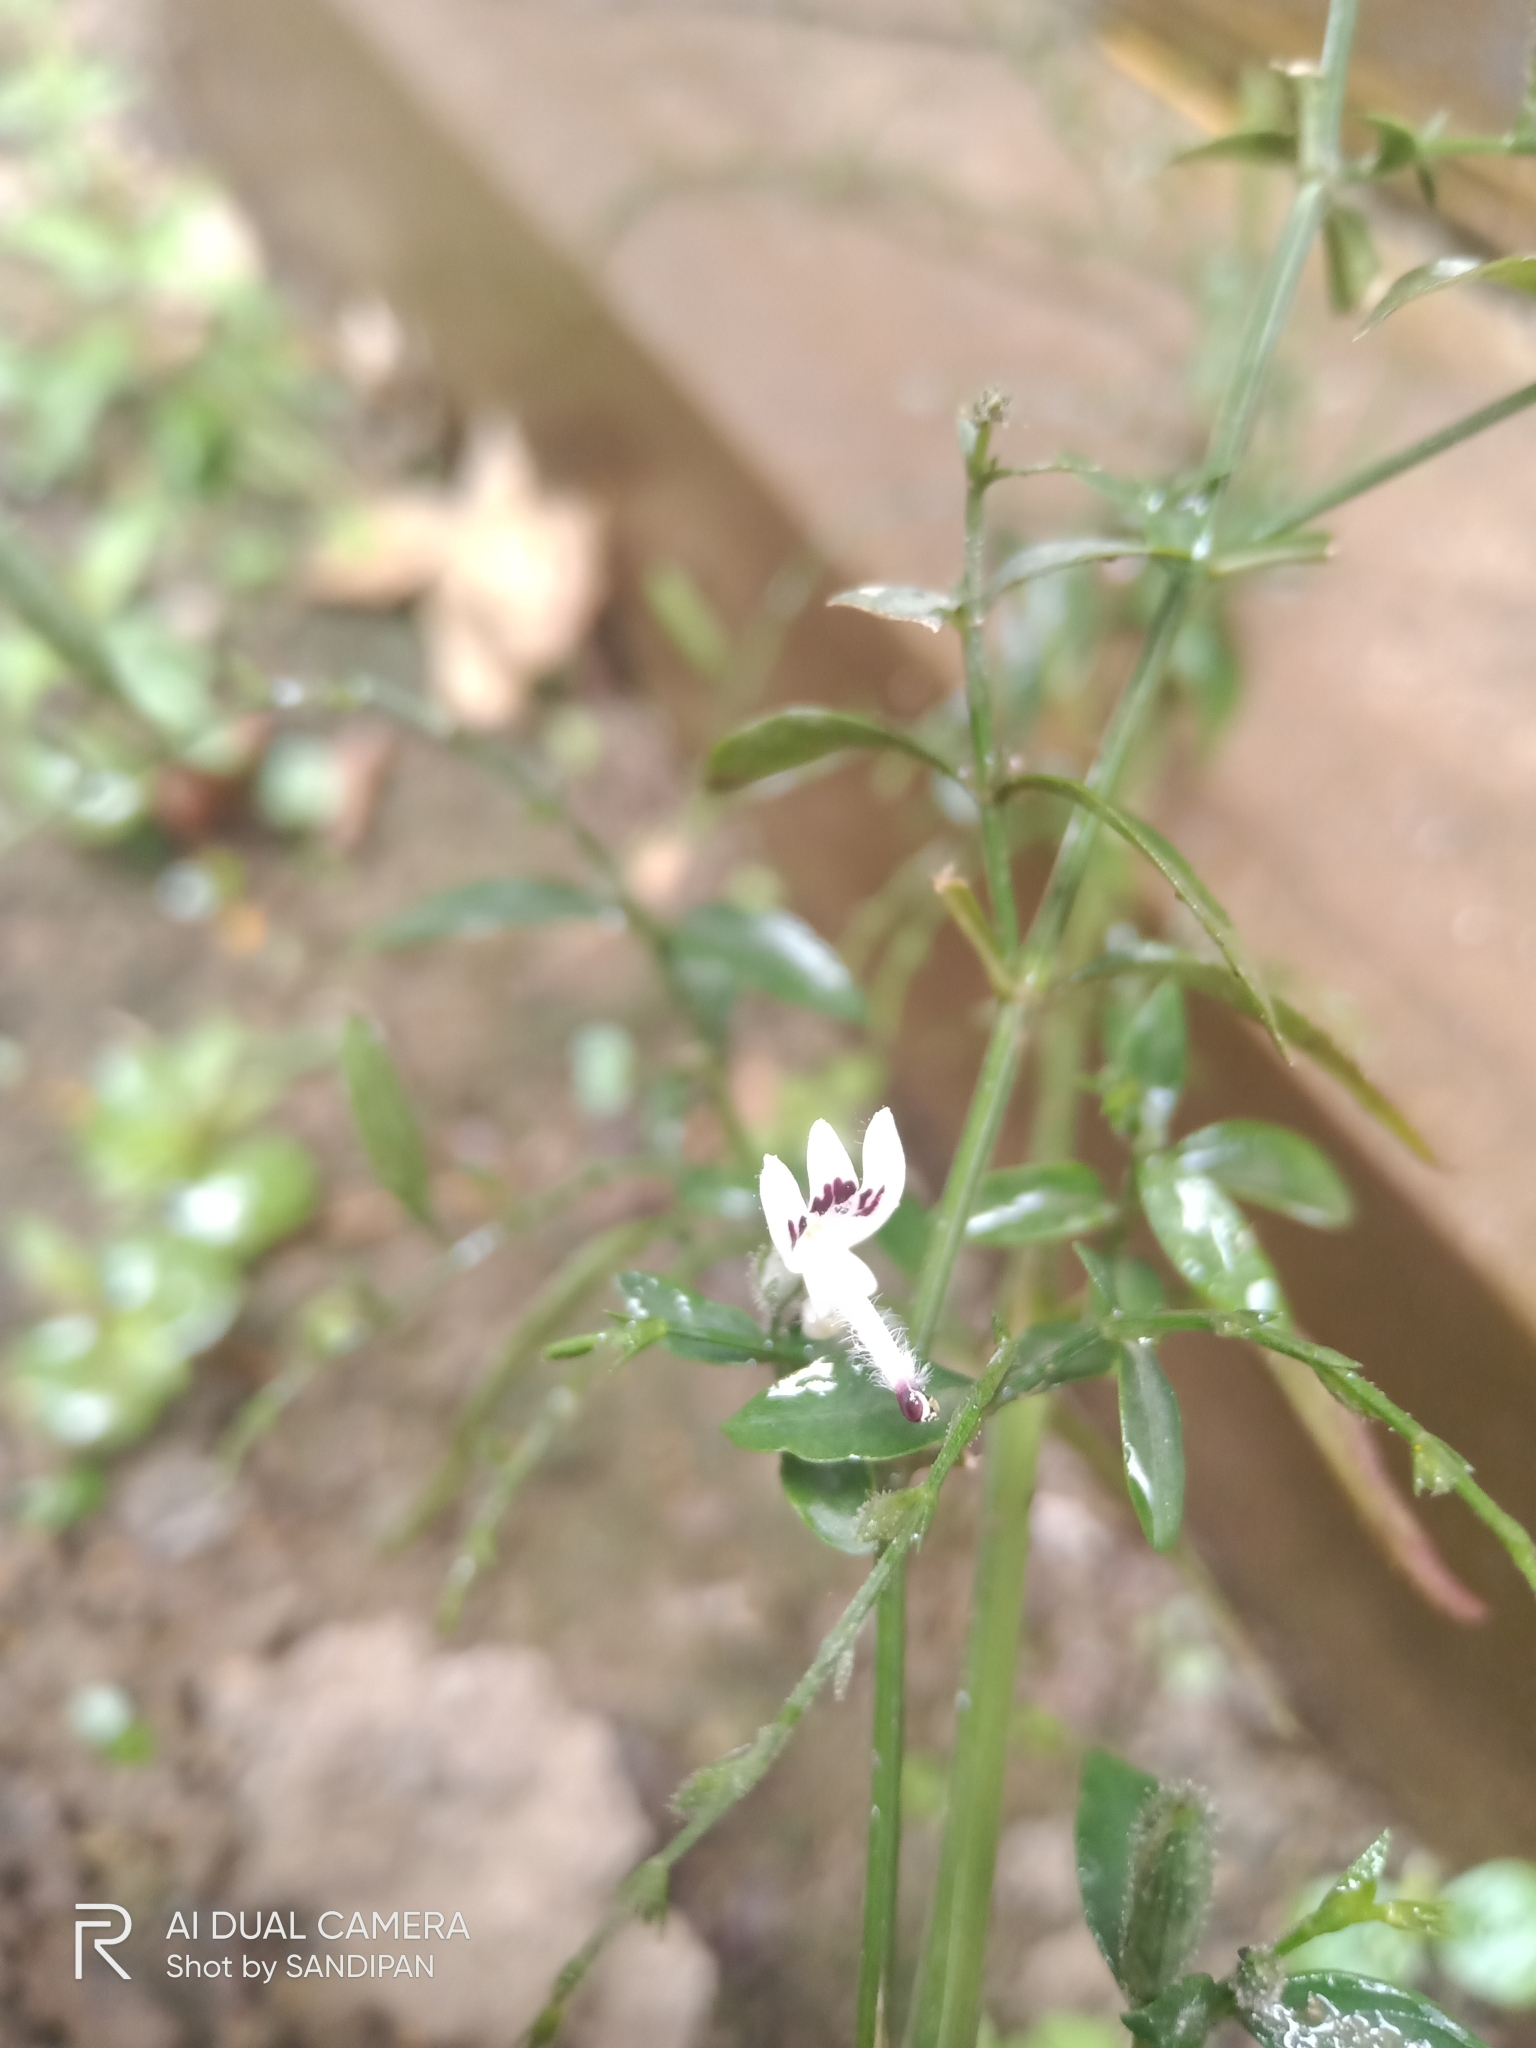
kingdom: Plantae
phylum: Tracheophyta
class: Magnoliopsida
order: Lamiales
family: Acanthaceae
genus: Andrographis
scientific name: Andrographis paniculata
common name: Green chireta
